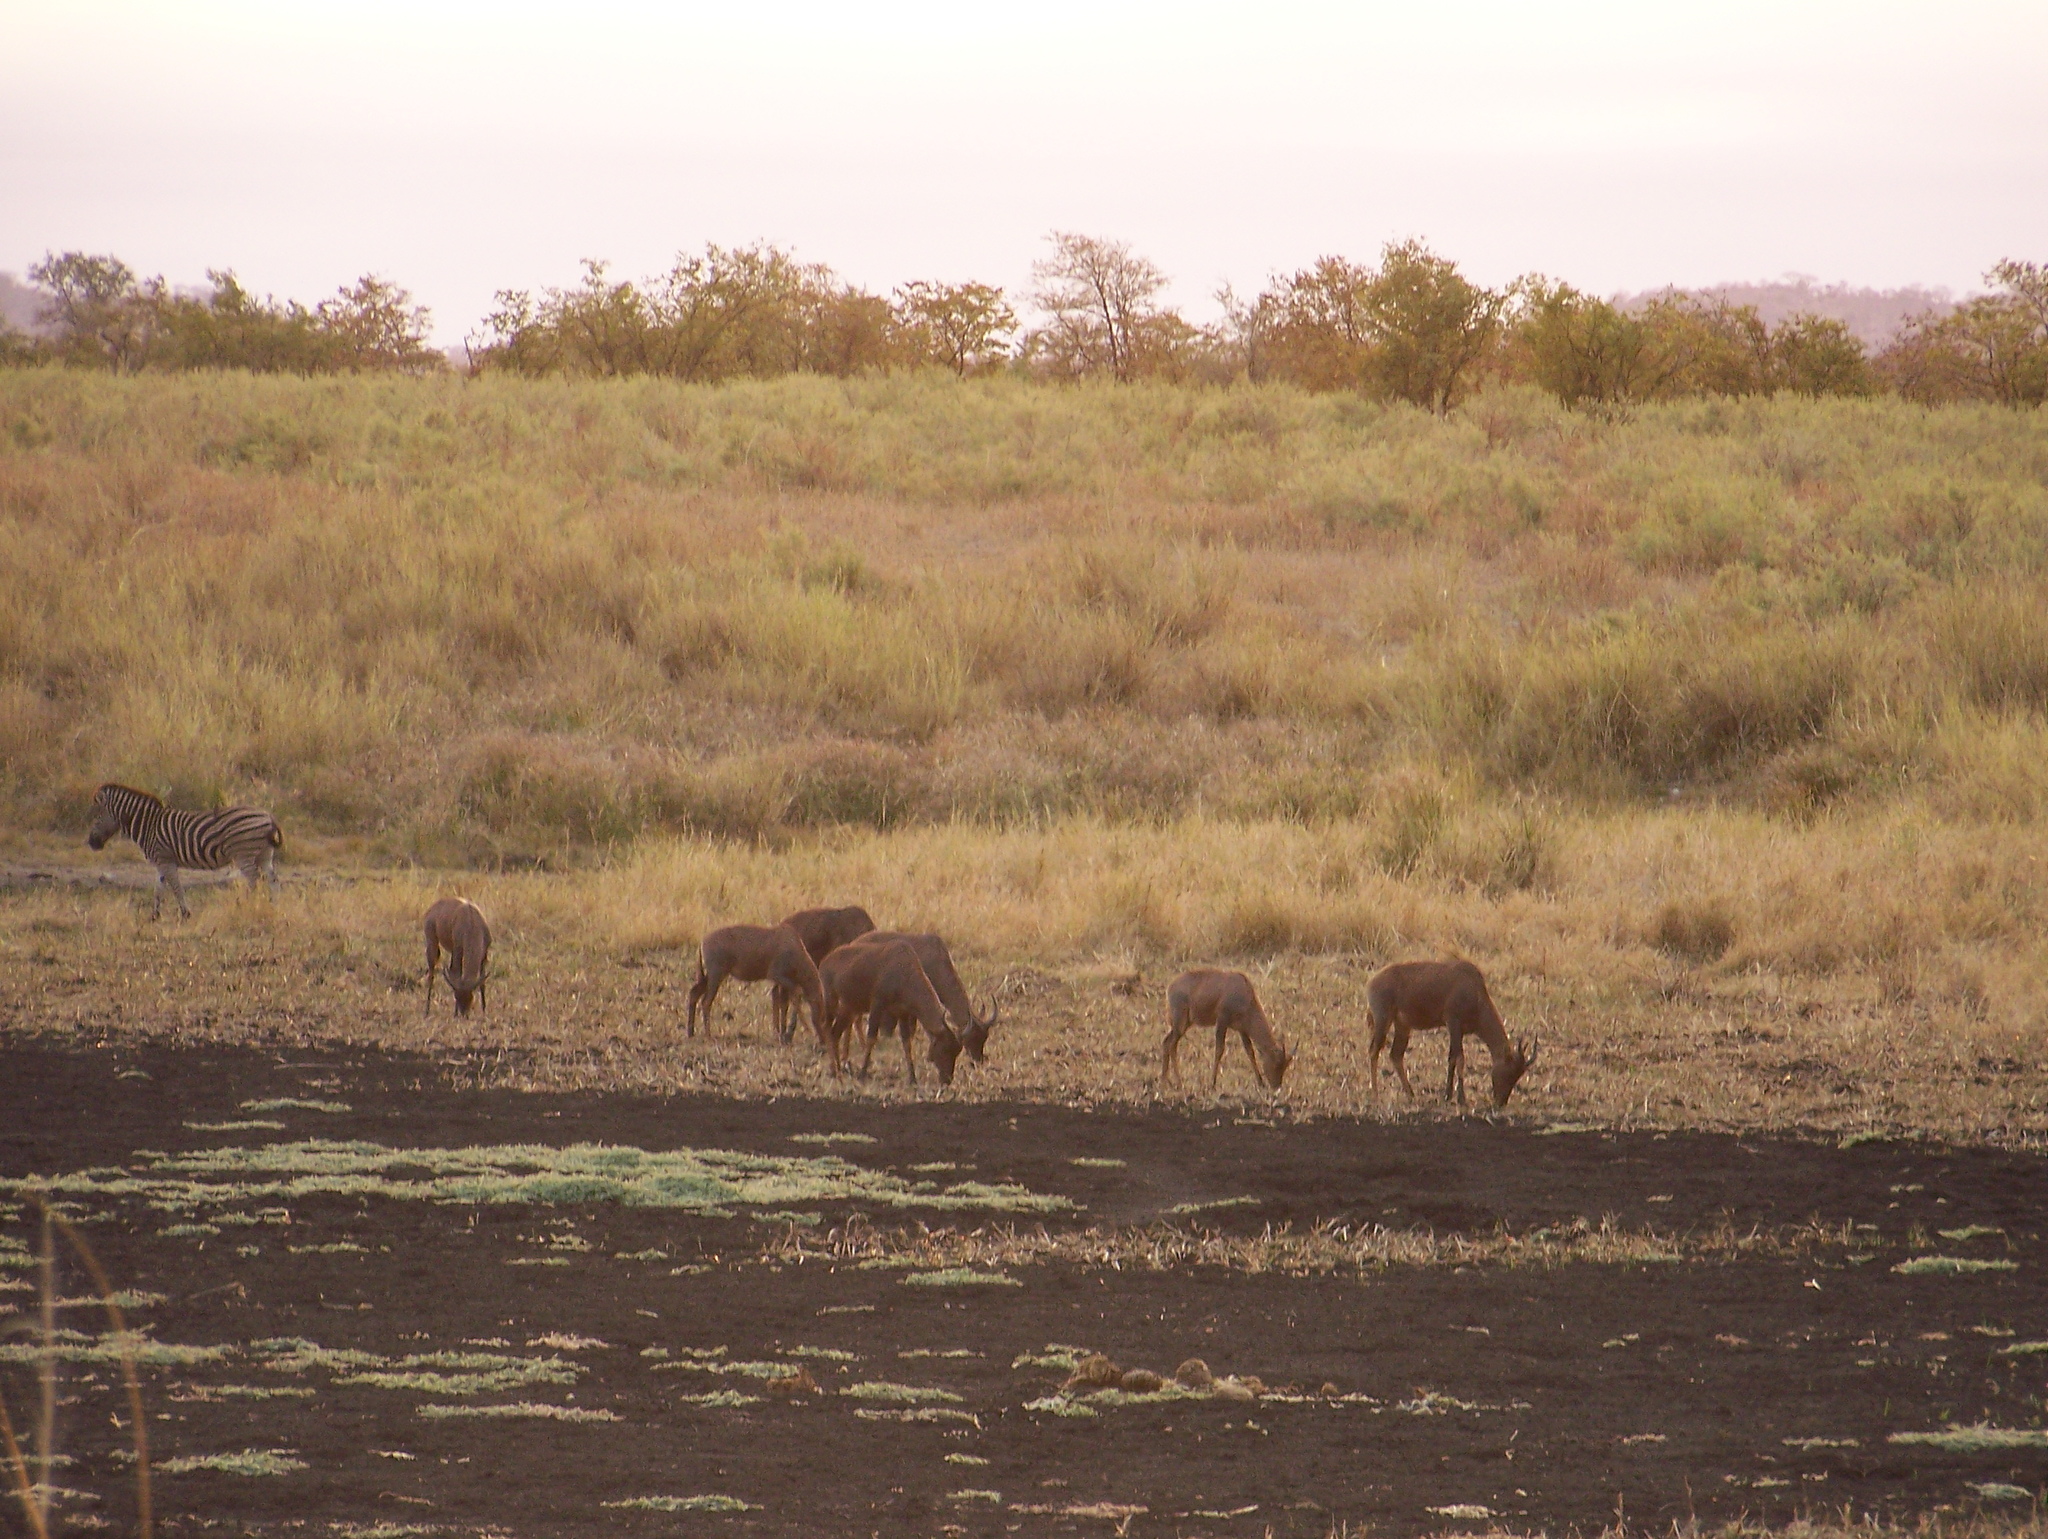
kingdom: Animalia
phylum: Chordata
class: Mammalia
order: Artiodactyla
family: Bovidae
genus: Damaliscus
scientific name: Damaliscus lunatus
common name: Common tsessebe
